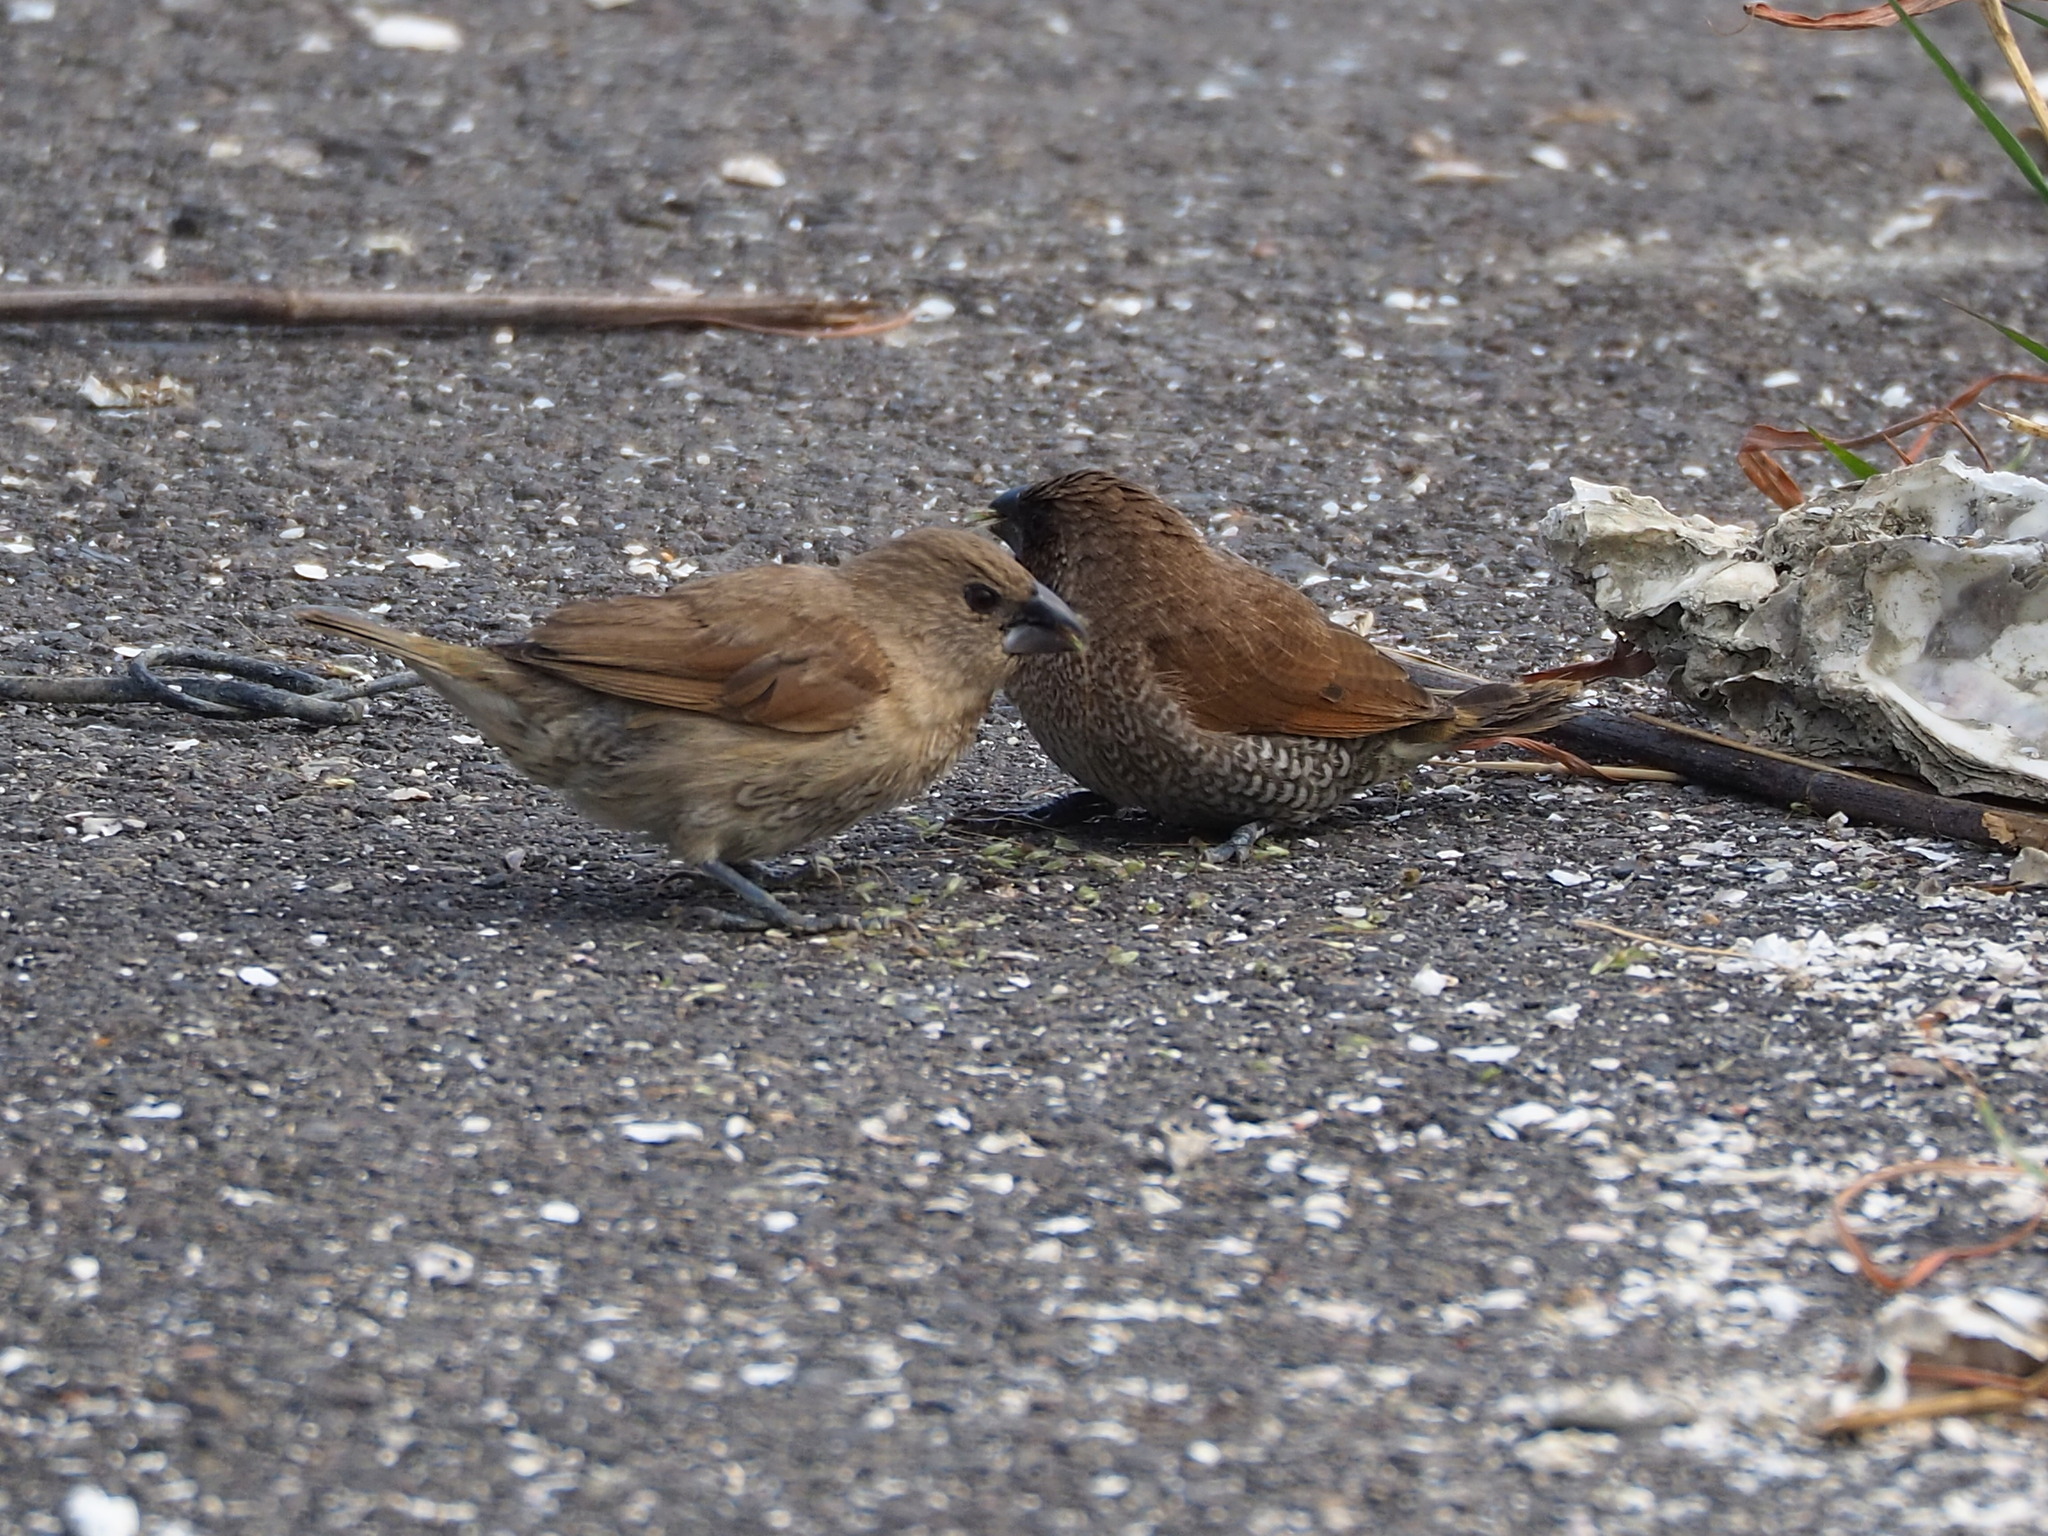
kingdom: Animalia
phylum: Chordata
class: Aves
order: Passeriformes
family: Estrildidae
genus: Lonchura
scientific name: Lonchura punctulata
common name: Scaly-breasted munia
